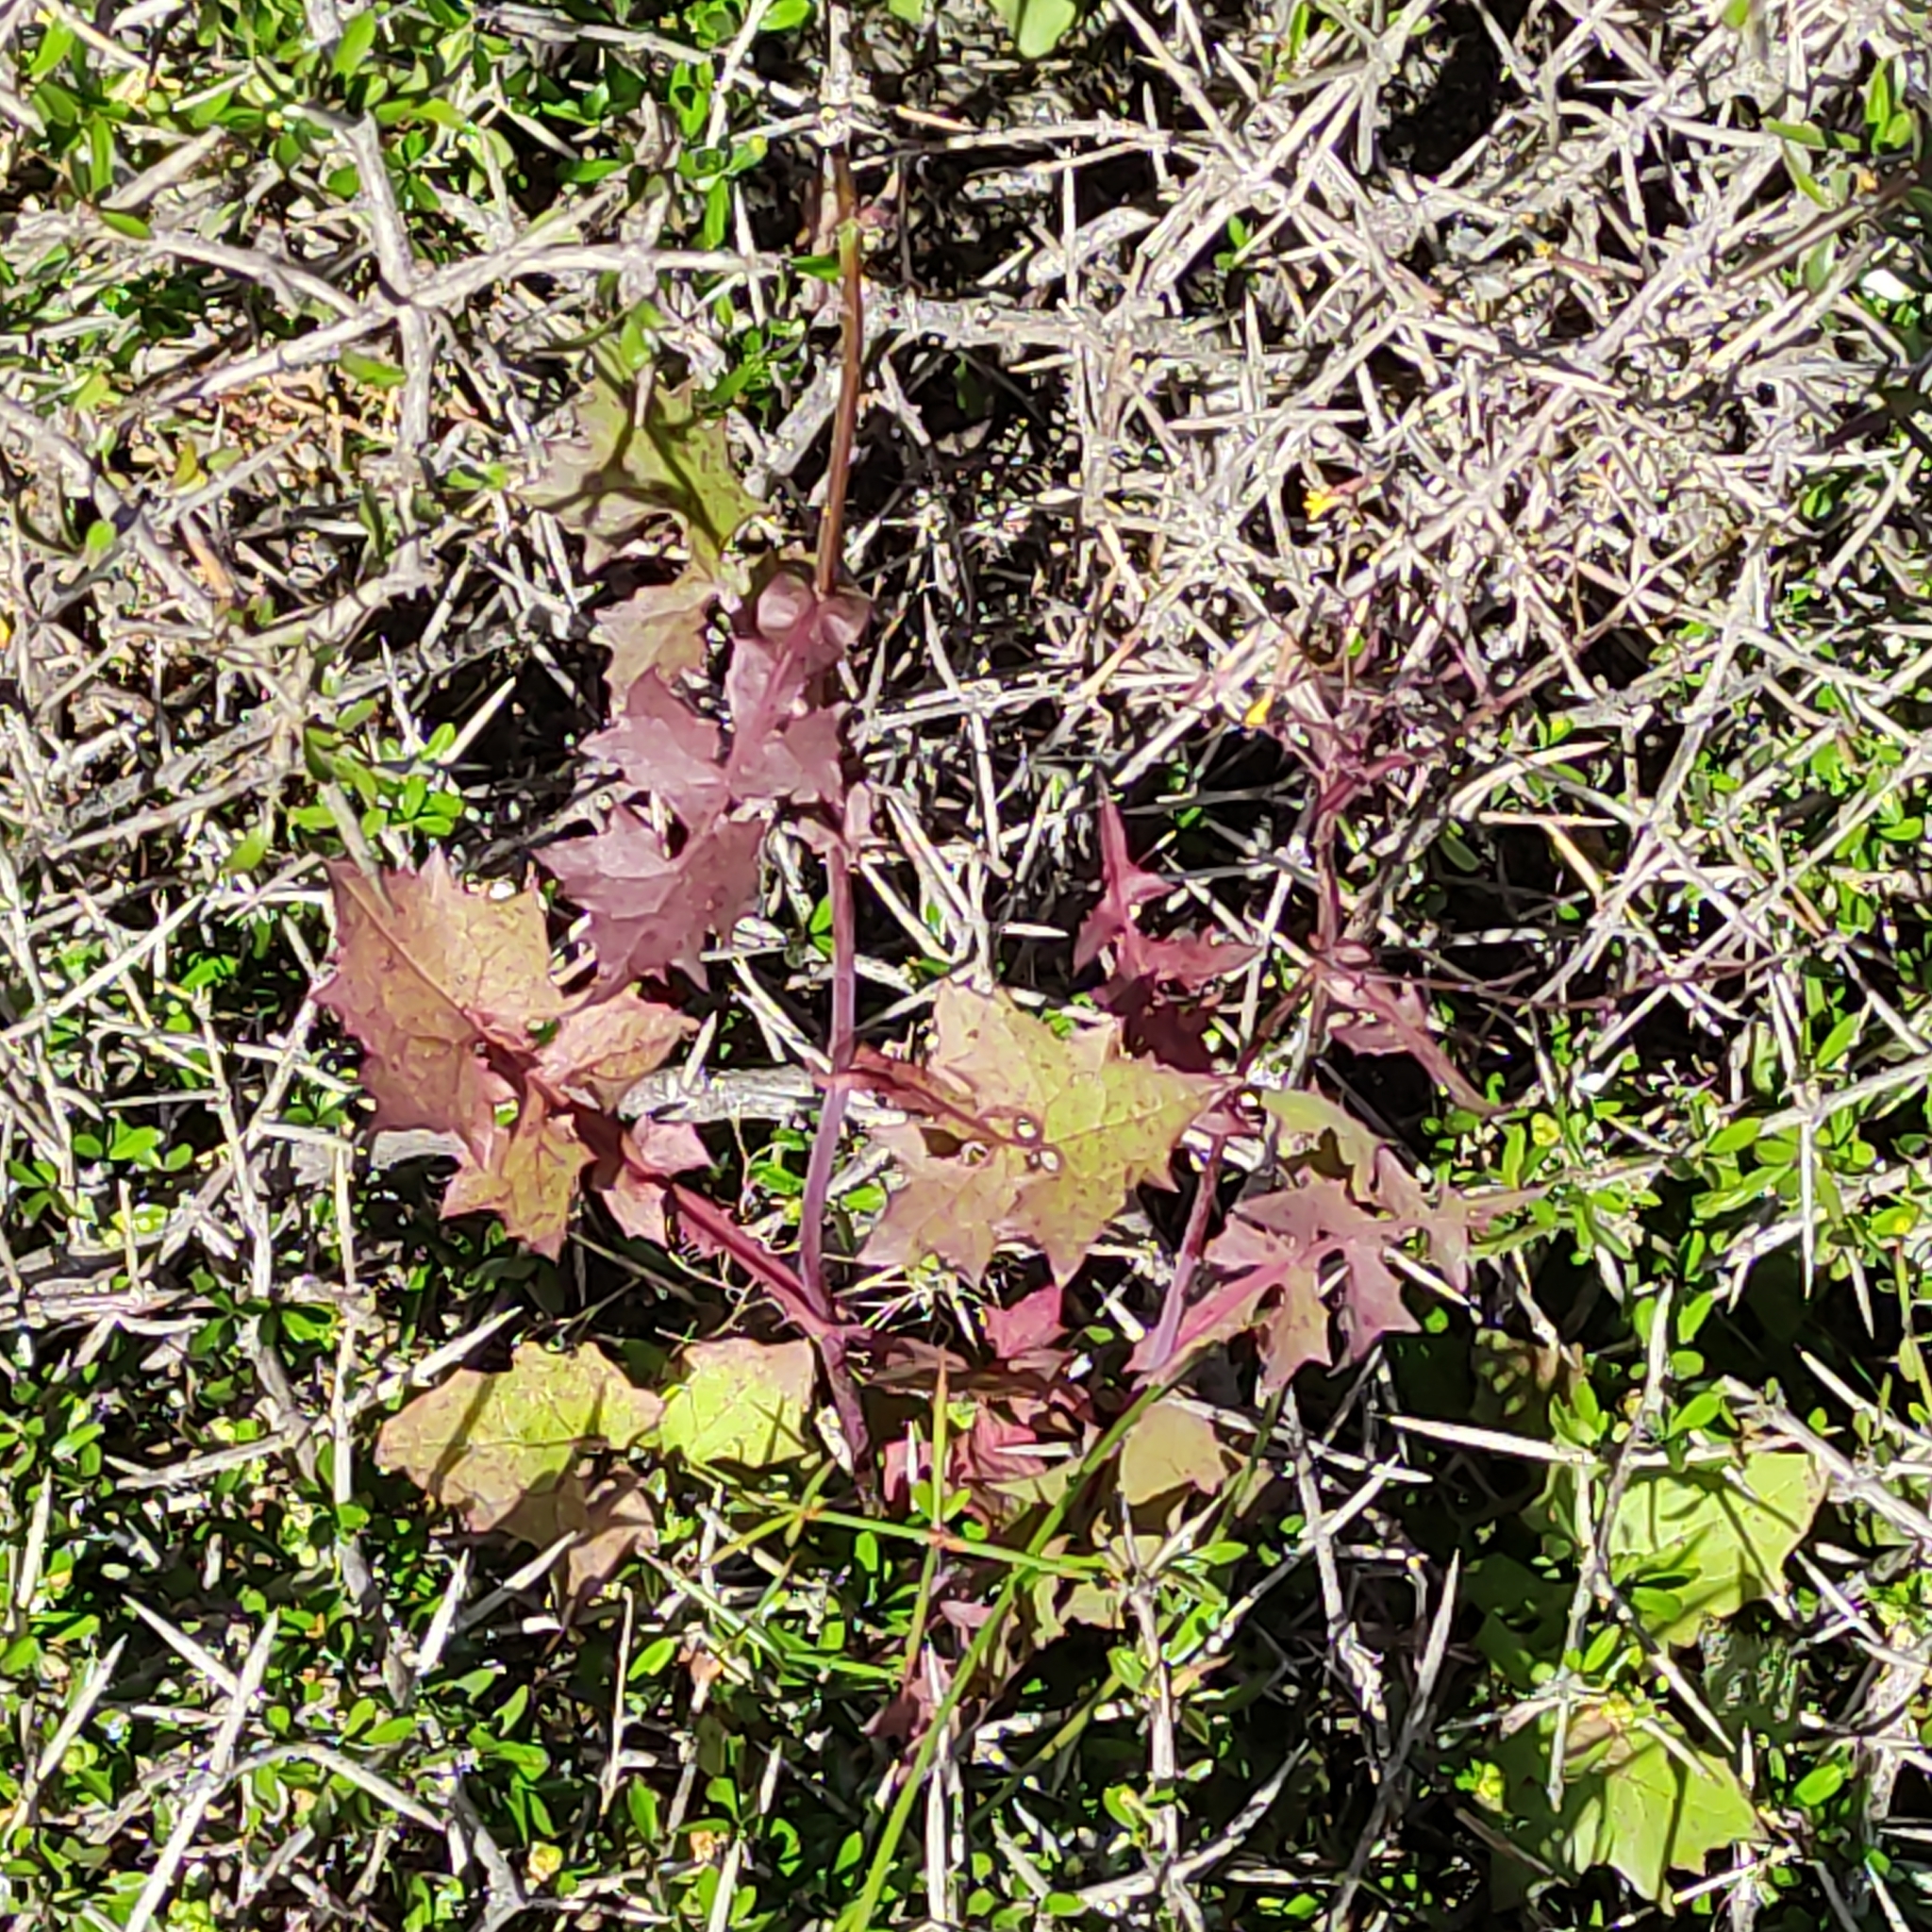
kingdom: Plantae
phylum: Tracheophyta
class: Magnoliopsida
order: Asterales
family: Asteraceae
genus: Mycelis
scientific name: Mycelis muralis
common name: Wall lettuce
